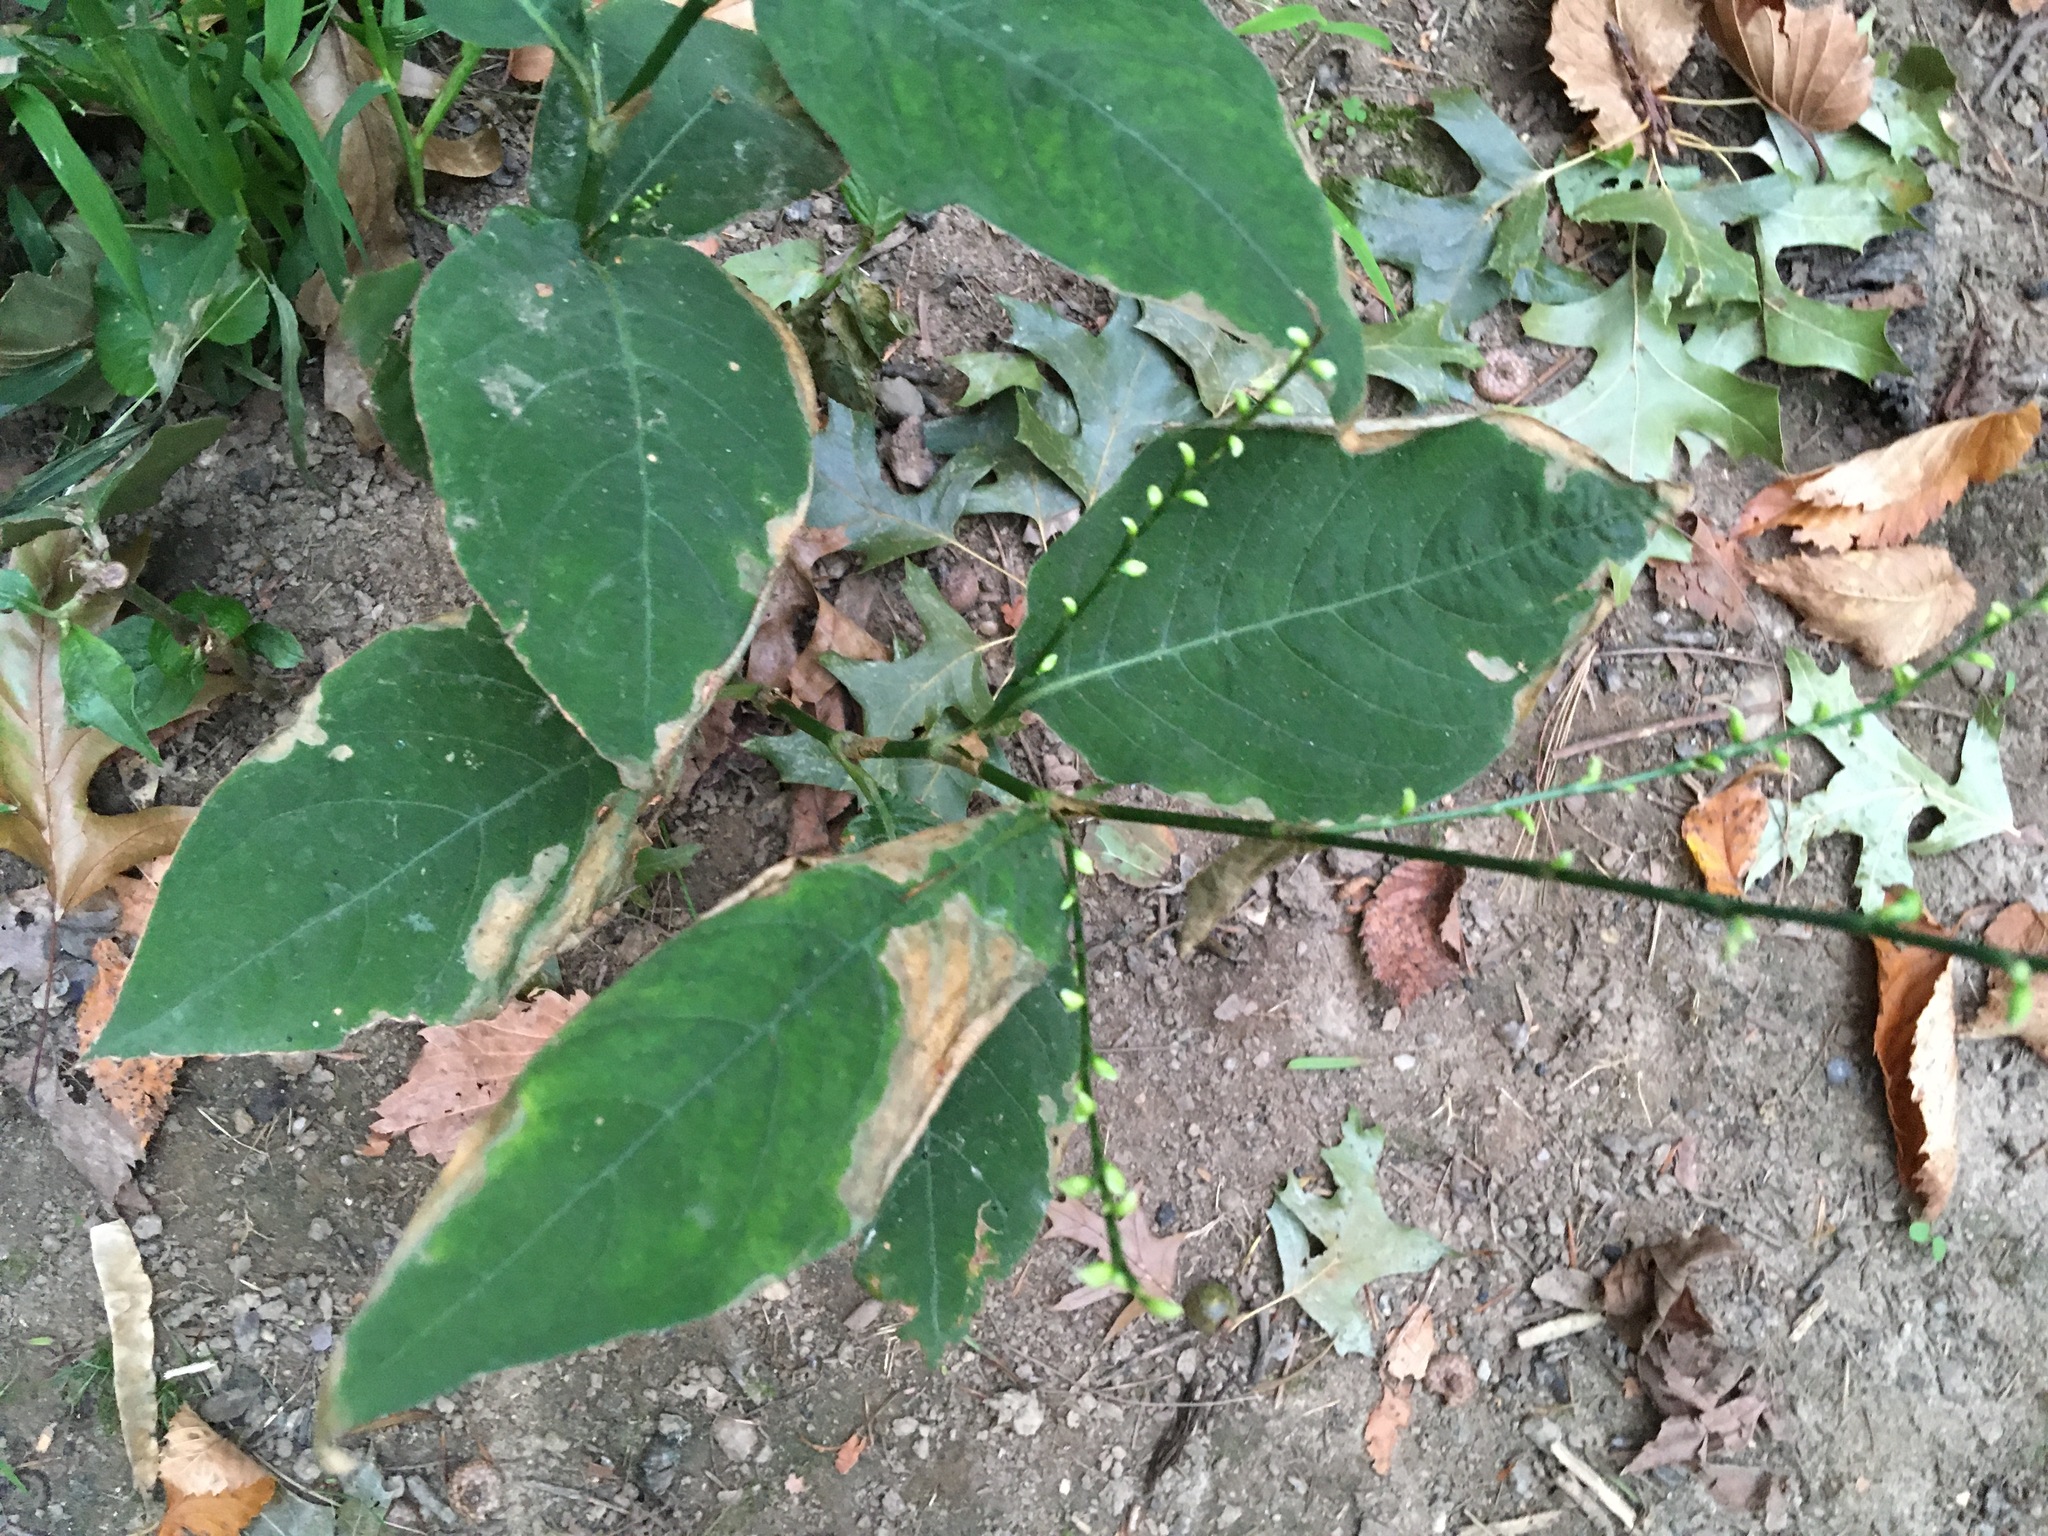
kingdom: Plantae
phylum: Tracheophyta
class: Magnoliopsida
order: Caryophyllales
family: Polygonaceae
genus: Persicaria
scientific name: Persicaria virginiana
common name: Jumpseed
